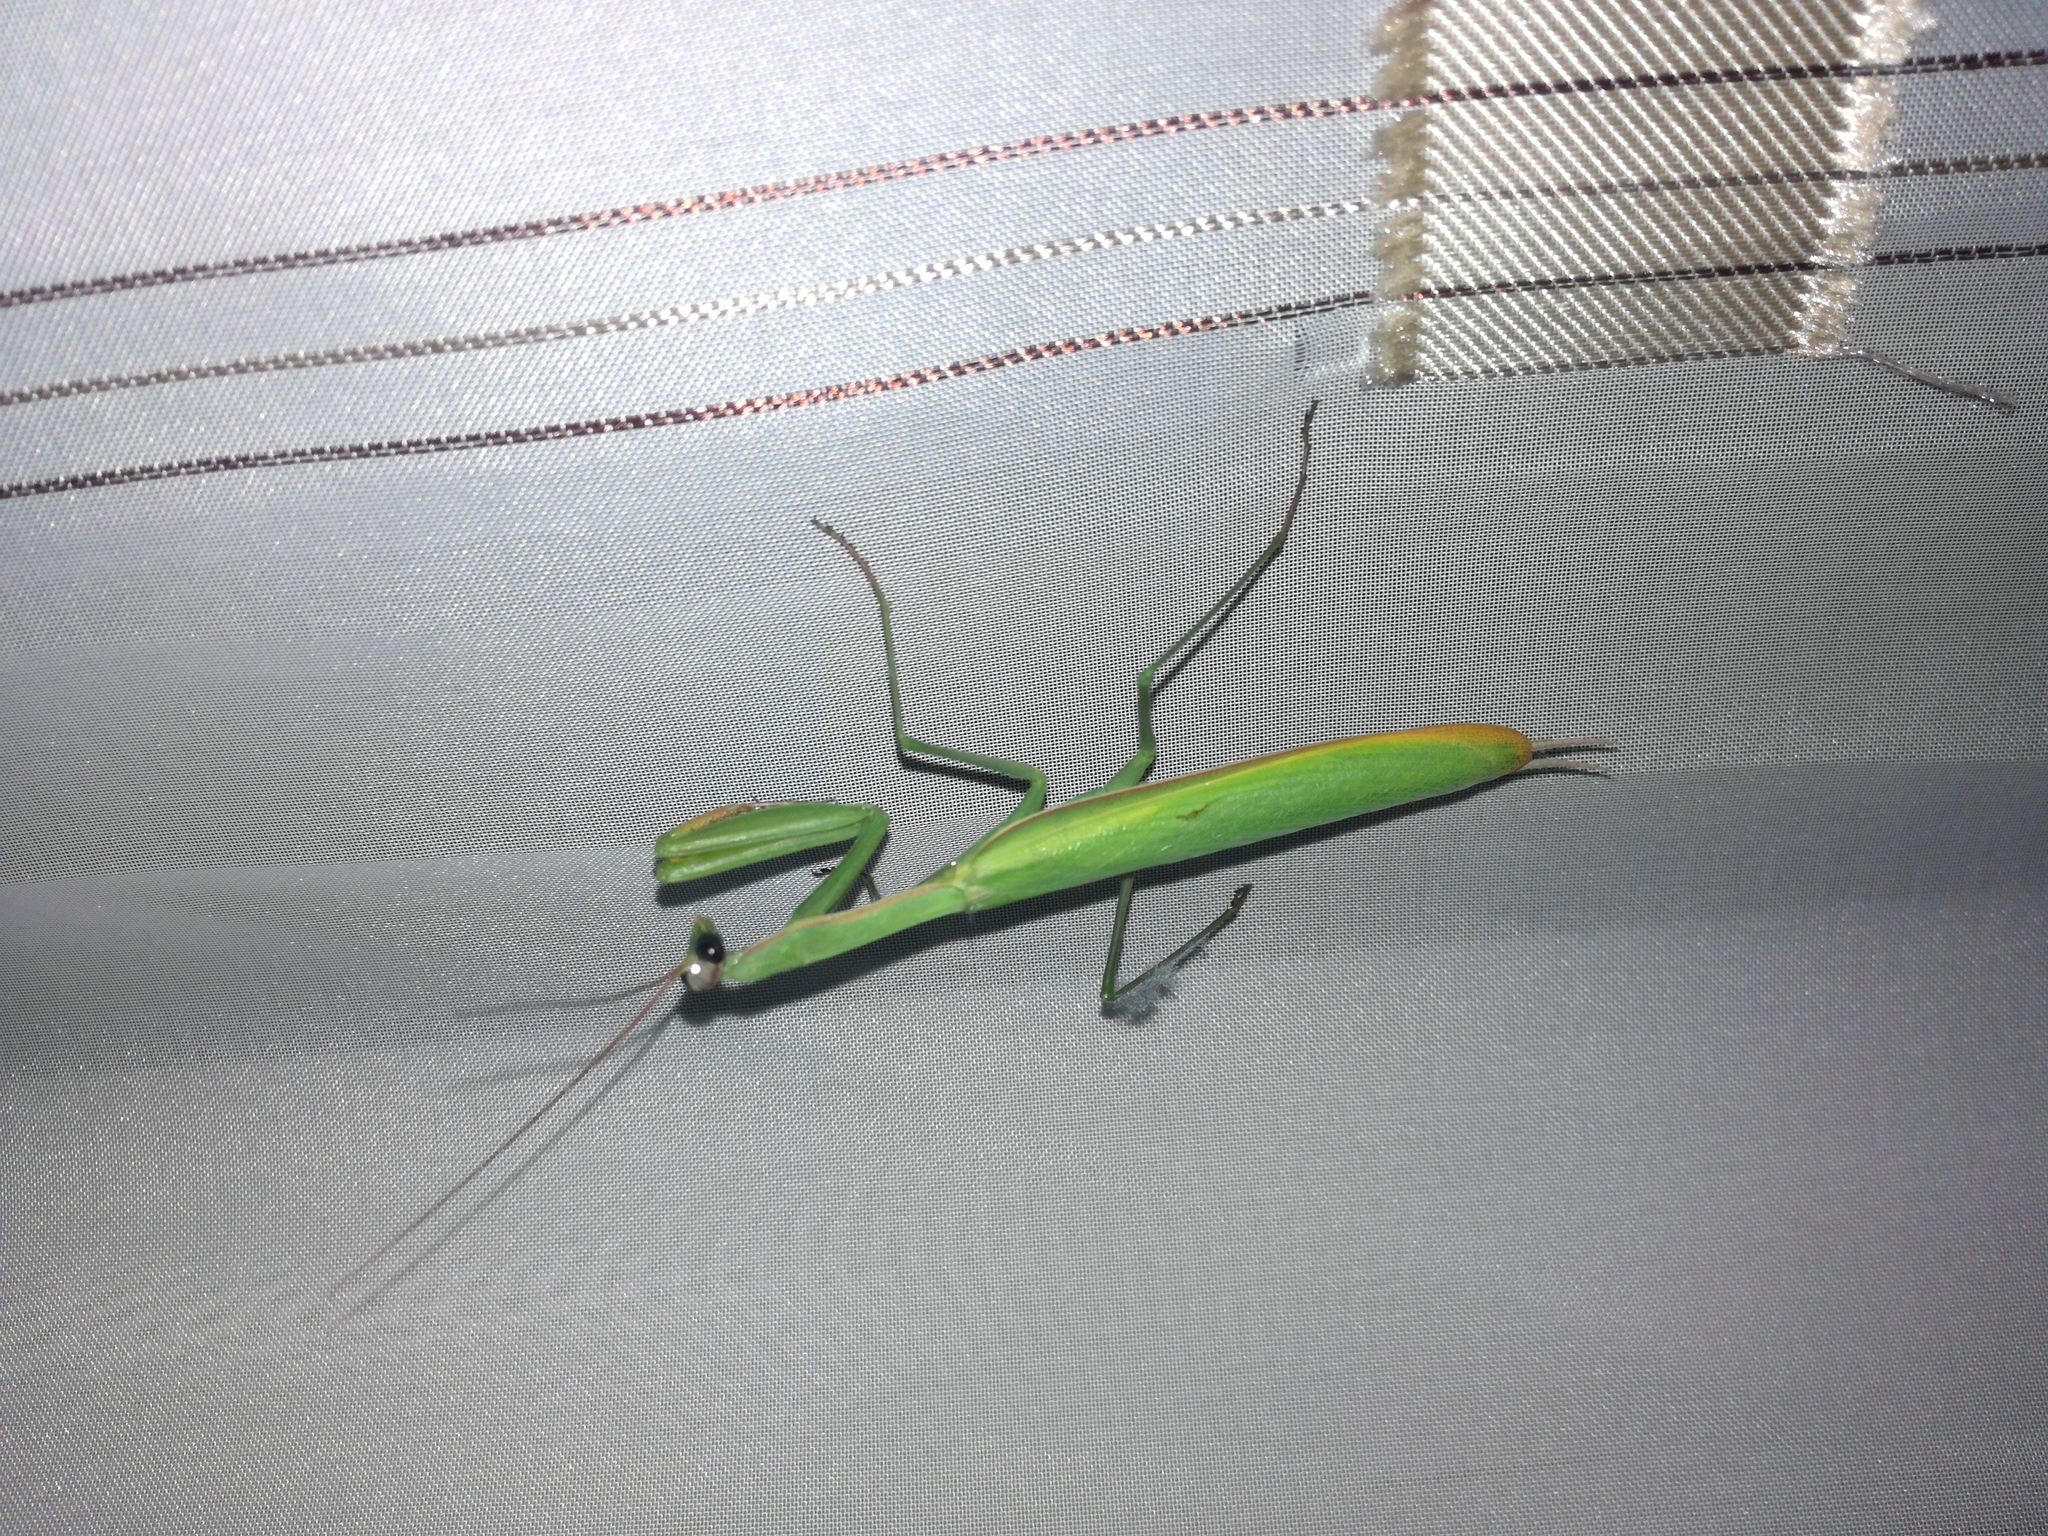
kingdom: Animalia
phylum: Arthropoda
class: Insecta
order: Mantodea
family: Mantidae
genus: Mantis
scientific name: Mantis religiosa
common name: Praying mantis
